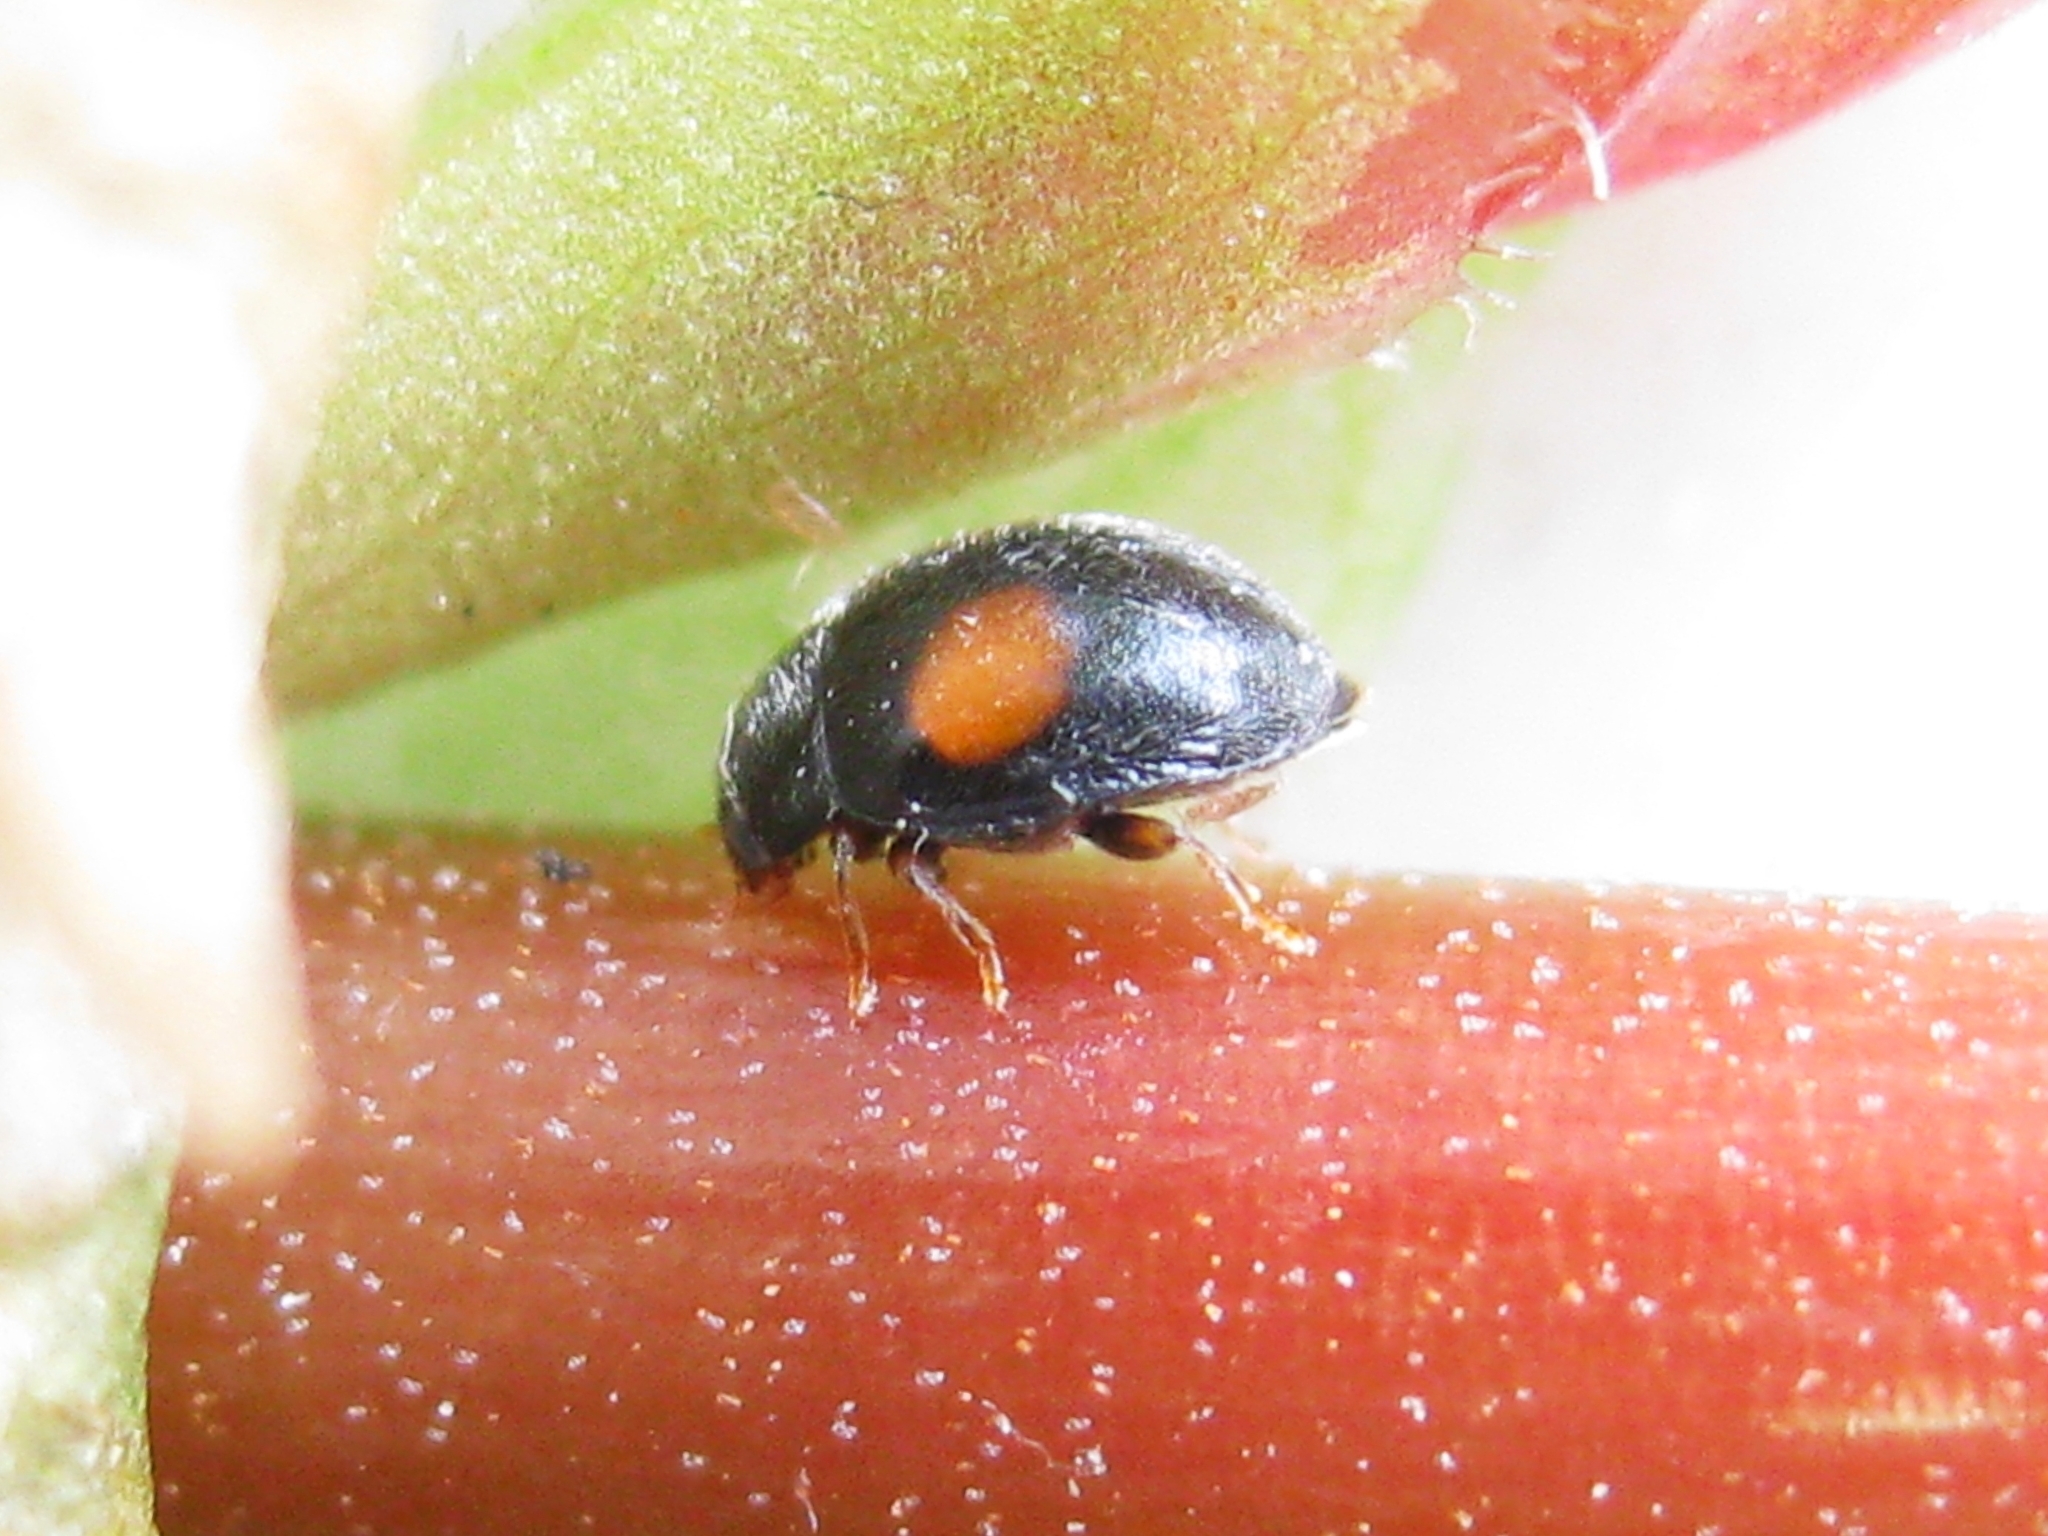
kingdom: Animalia
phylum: Arthropoda
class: Insecta
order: Coleoptera
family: Coccinellidae
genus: Scymnus
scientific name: Scymnus
